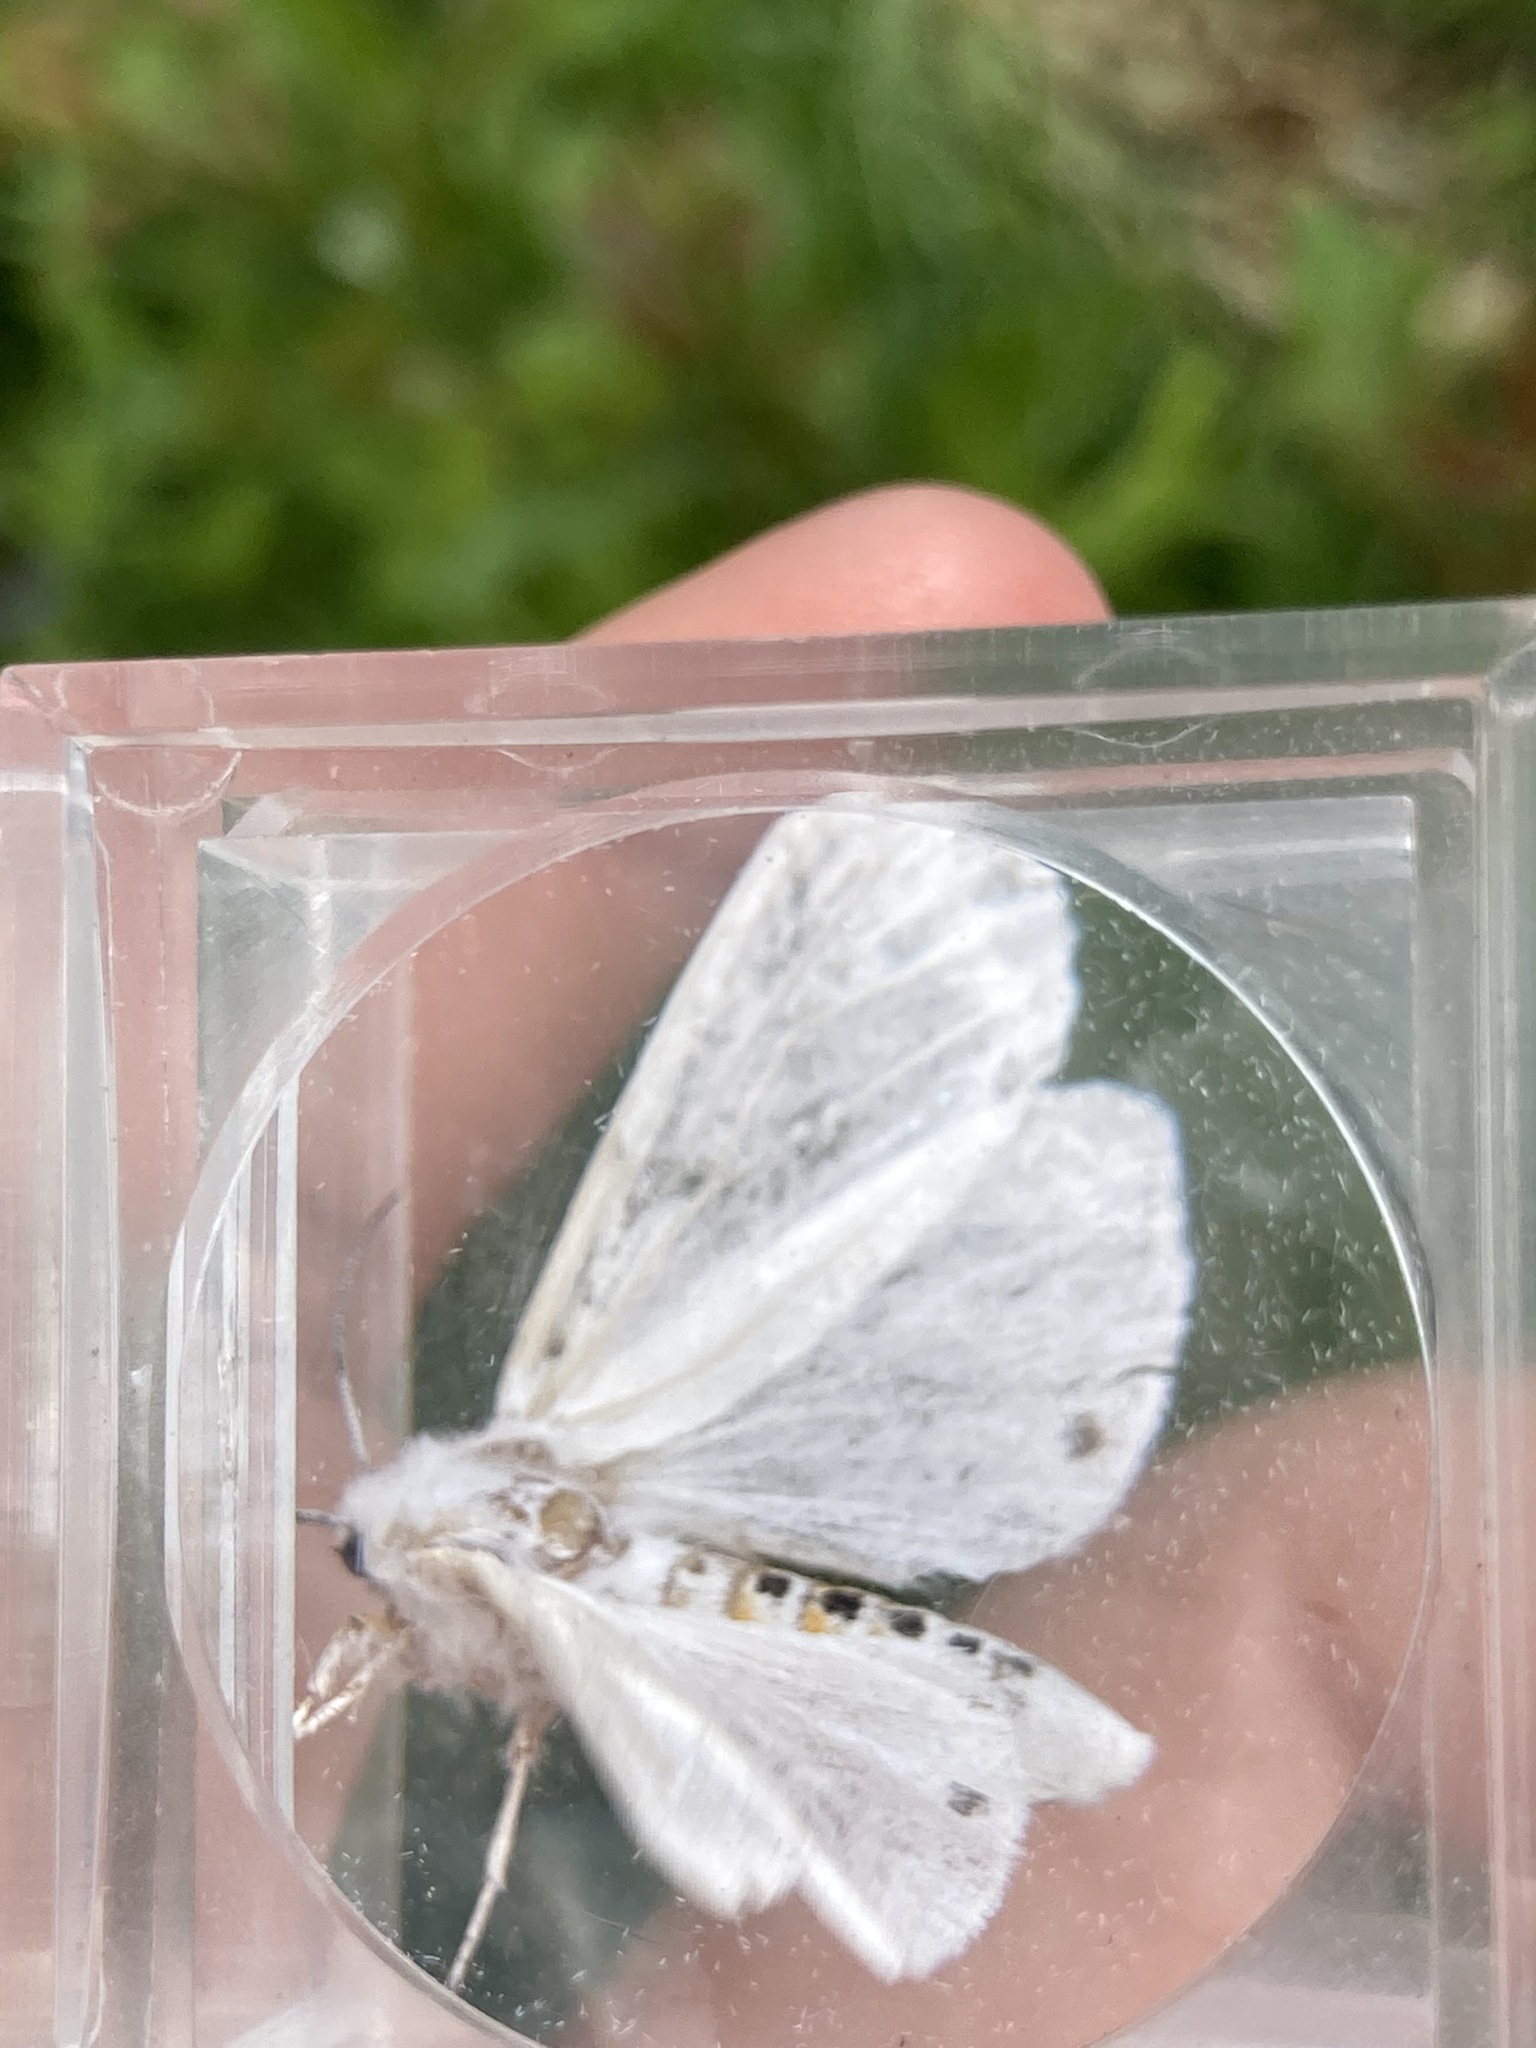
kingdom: Animalia
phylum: Arthropoda
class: Insecta
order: Lepidoptera
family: Erebidae
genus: Spilosoma
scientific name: Spilosoma virginica
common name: Virginia tiger moth
